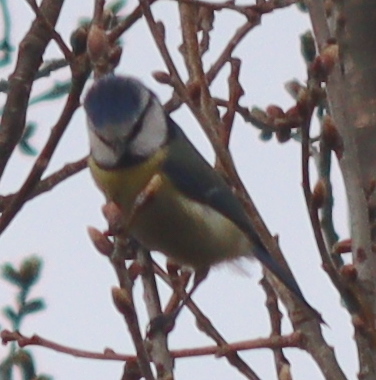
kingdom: Animalia
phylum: Chordata
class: Aves
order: Passeriformes
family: Paridae
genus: Cyanistes
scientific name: Cyanistes caeruleus
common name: Eurasian blue tit
